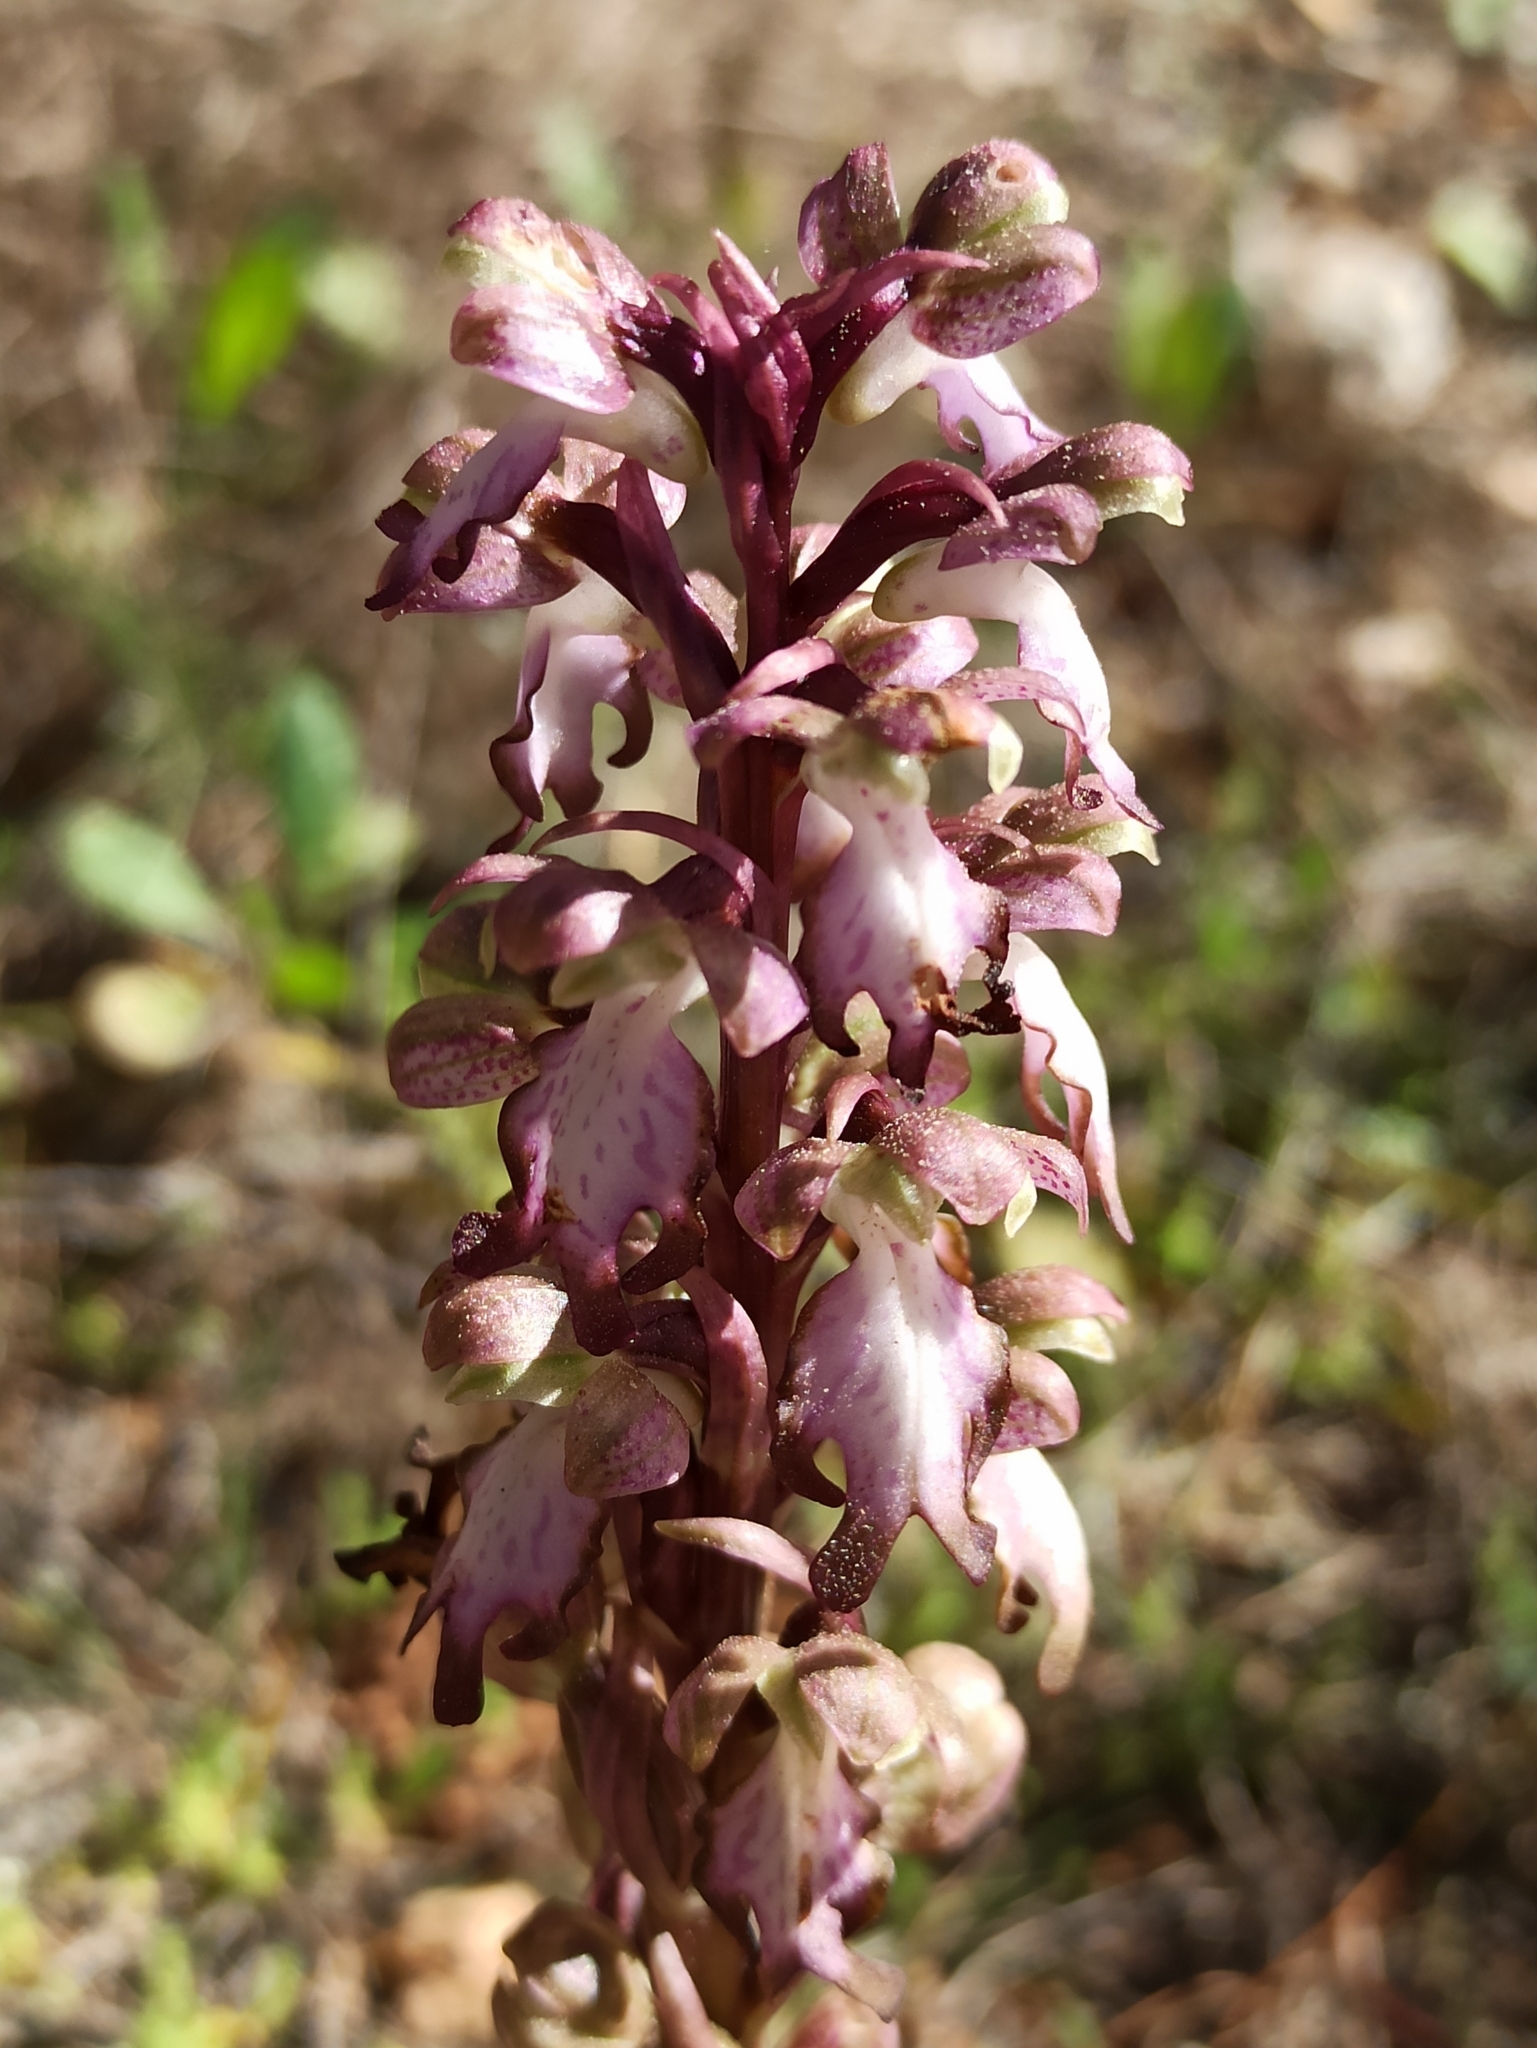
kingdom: Plantae
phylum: Tracheophyta
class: Liliopsida
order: Asparagales
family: Orchidaceae
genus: Himantoglossum
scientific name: Himantoglossum robertianum
